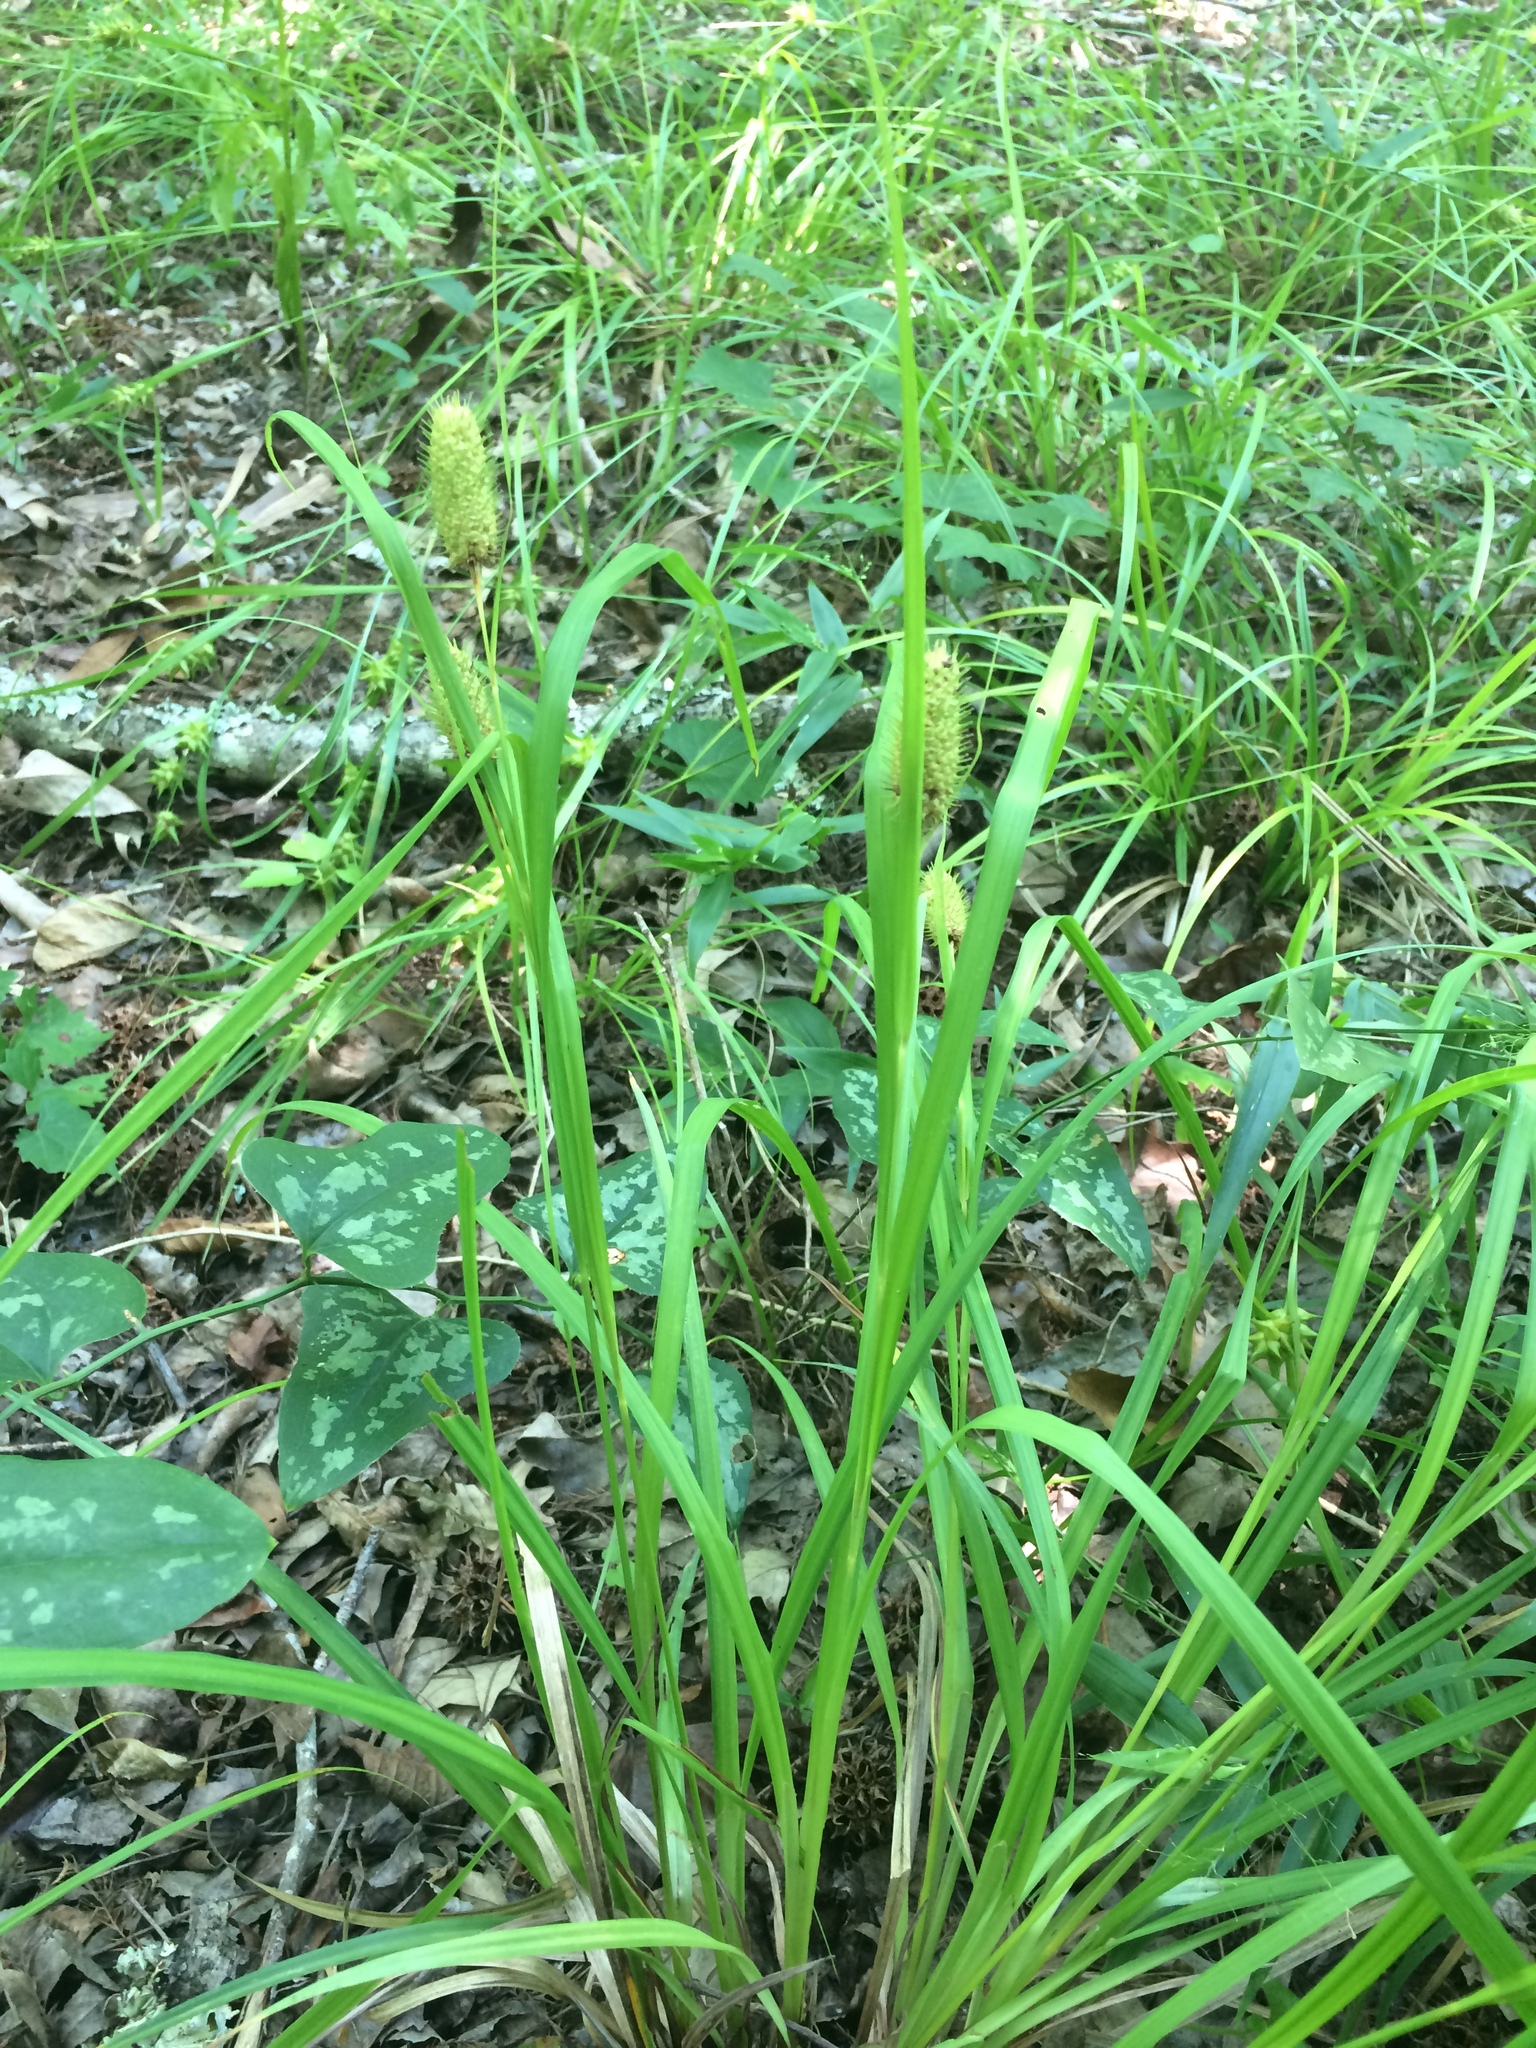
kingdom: Plantae
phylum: Tracheophyta
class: Liliopsida
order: Liliales
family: Smilacaceae
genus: Smilax
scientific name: Smilax bona-nox
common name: Catbrier
